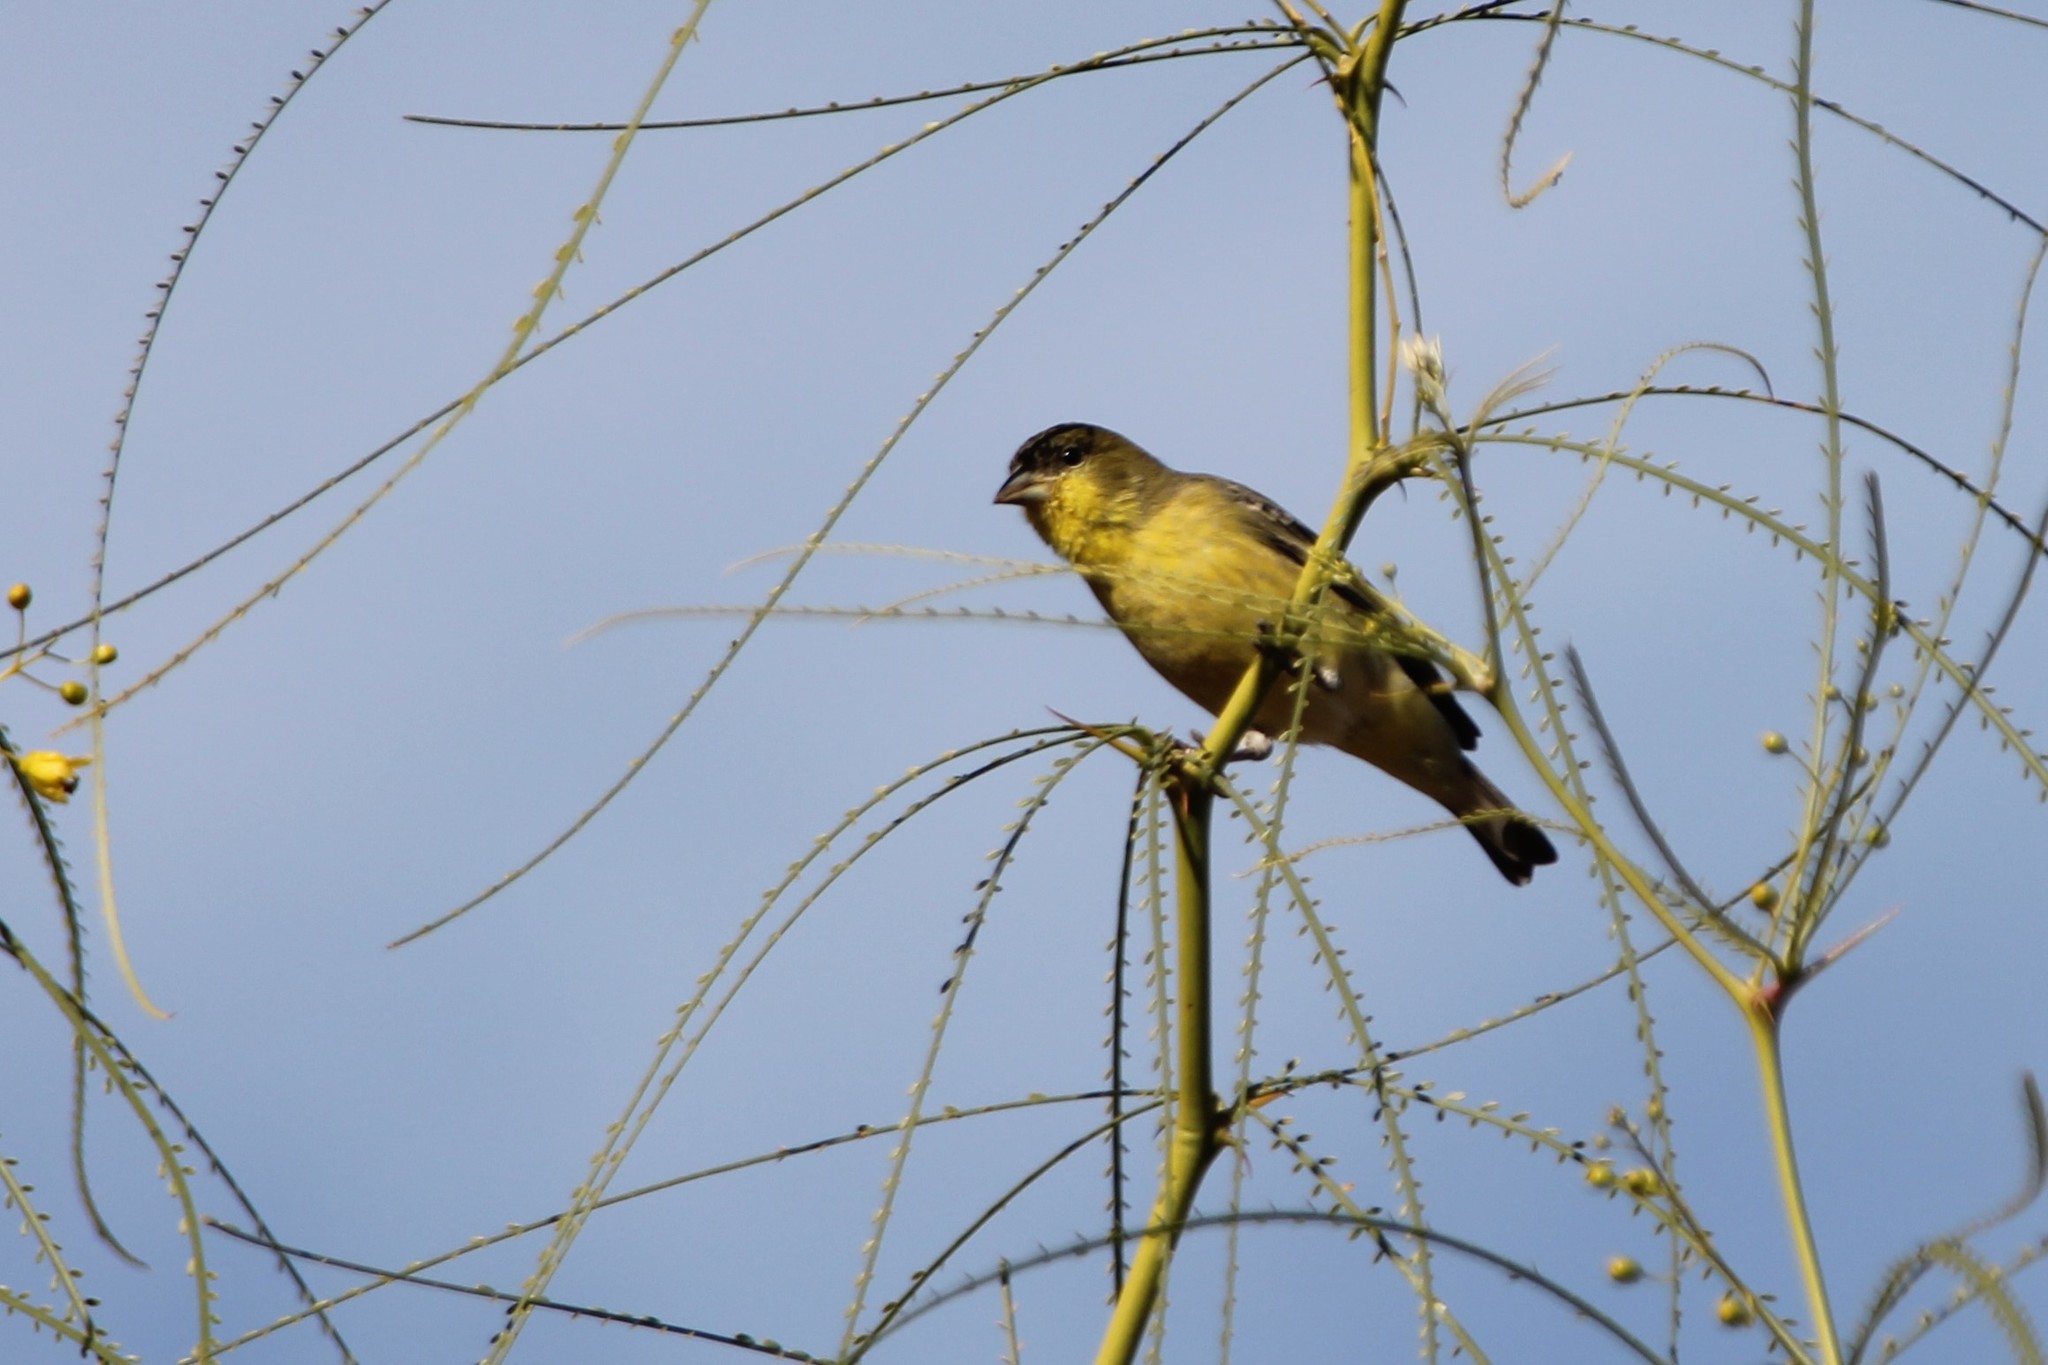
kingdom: Animalia
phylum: Chordata
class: Aves
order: Passeriformes
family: Fringillidae
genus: Spinus
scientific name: Spinus psaltria
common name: Lesser goldfinch
